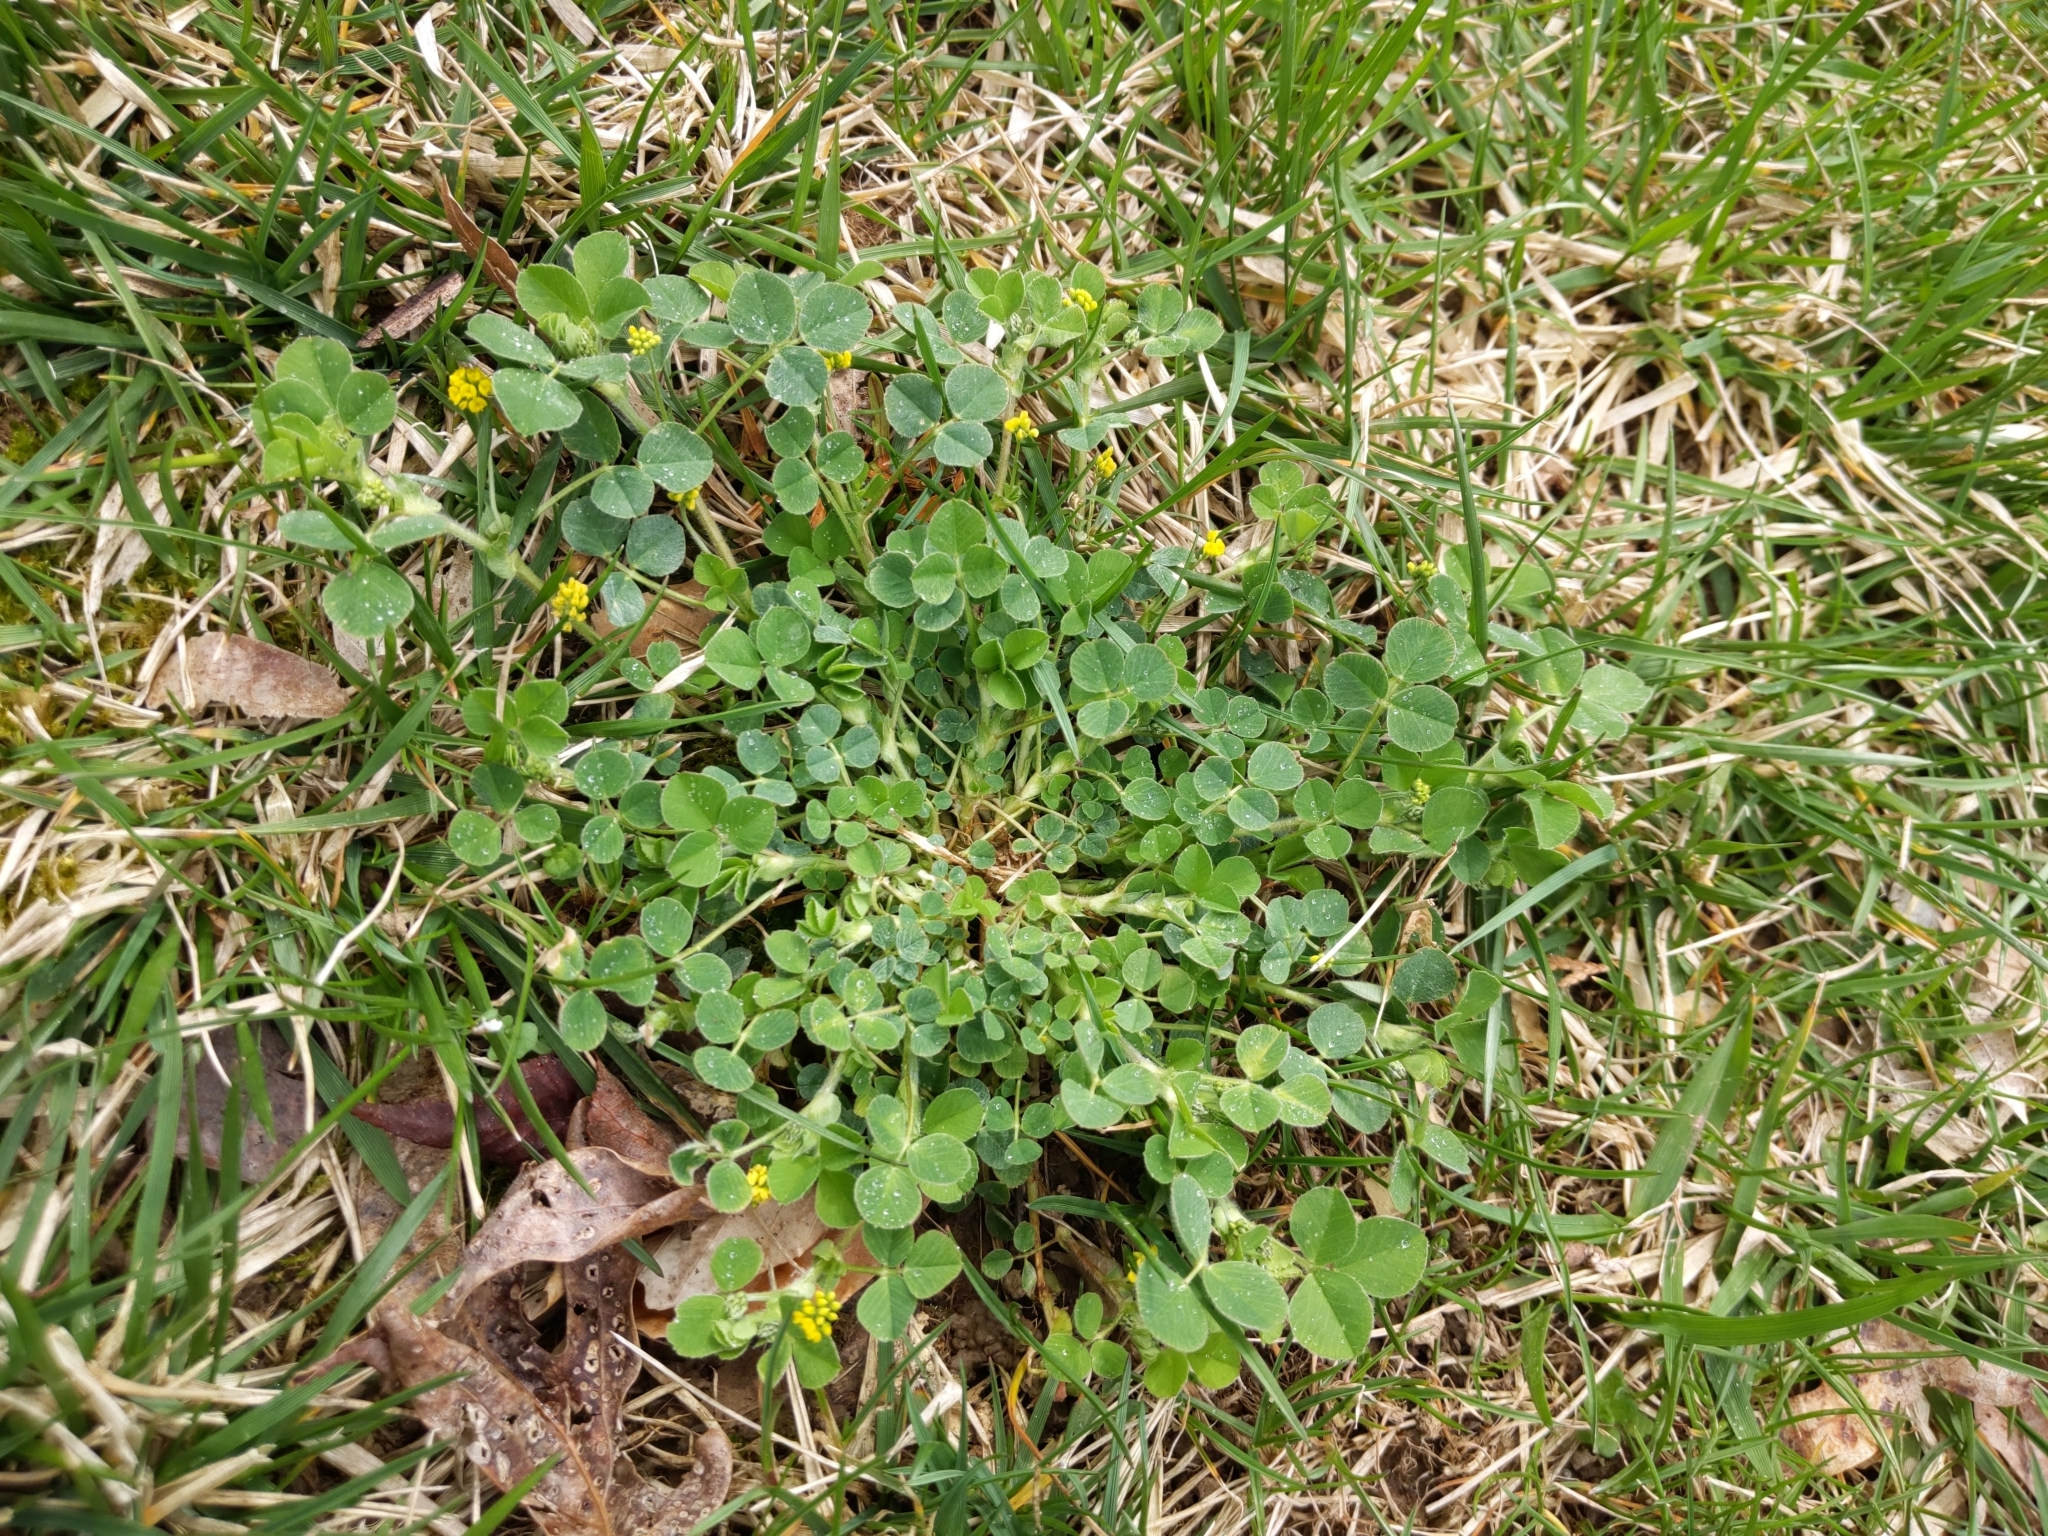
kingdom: Plantae
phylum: Tracheophyta
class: Magnoliopsida
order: Fabales
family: Fabaceae
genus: Medicago
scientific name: Medicago lupulina
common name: Black medick
